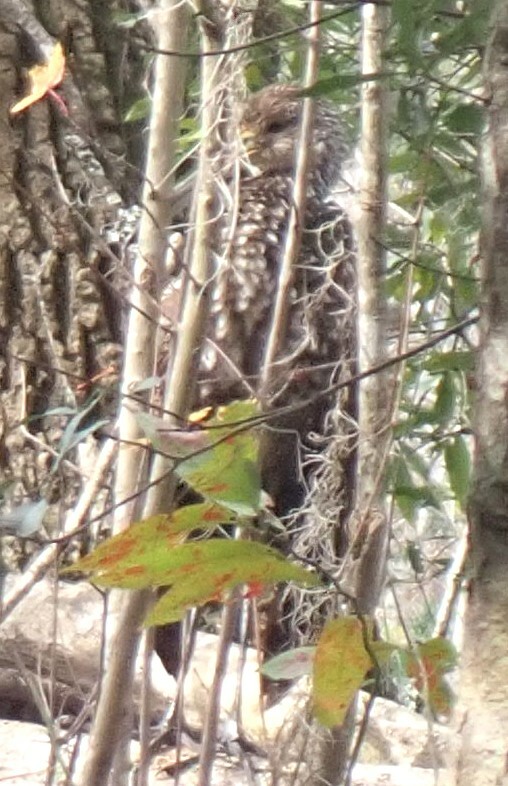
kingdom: Animalia
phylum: Chordata
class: Aves
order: Gruiformes
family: Aramidae
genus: Aramus
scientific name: Aramus guarauna
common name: Limpkin
